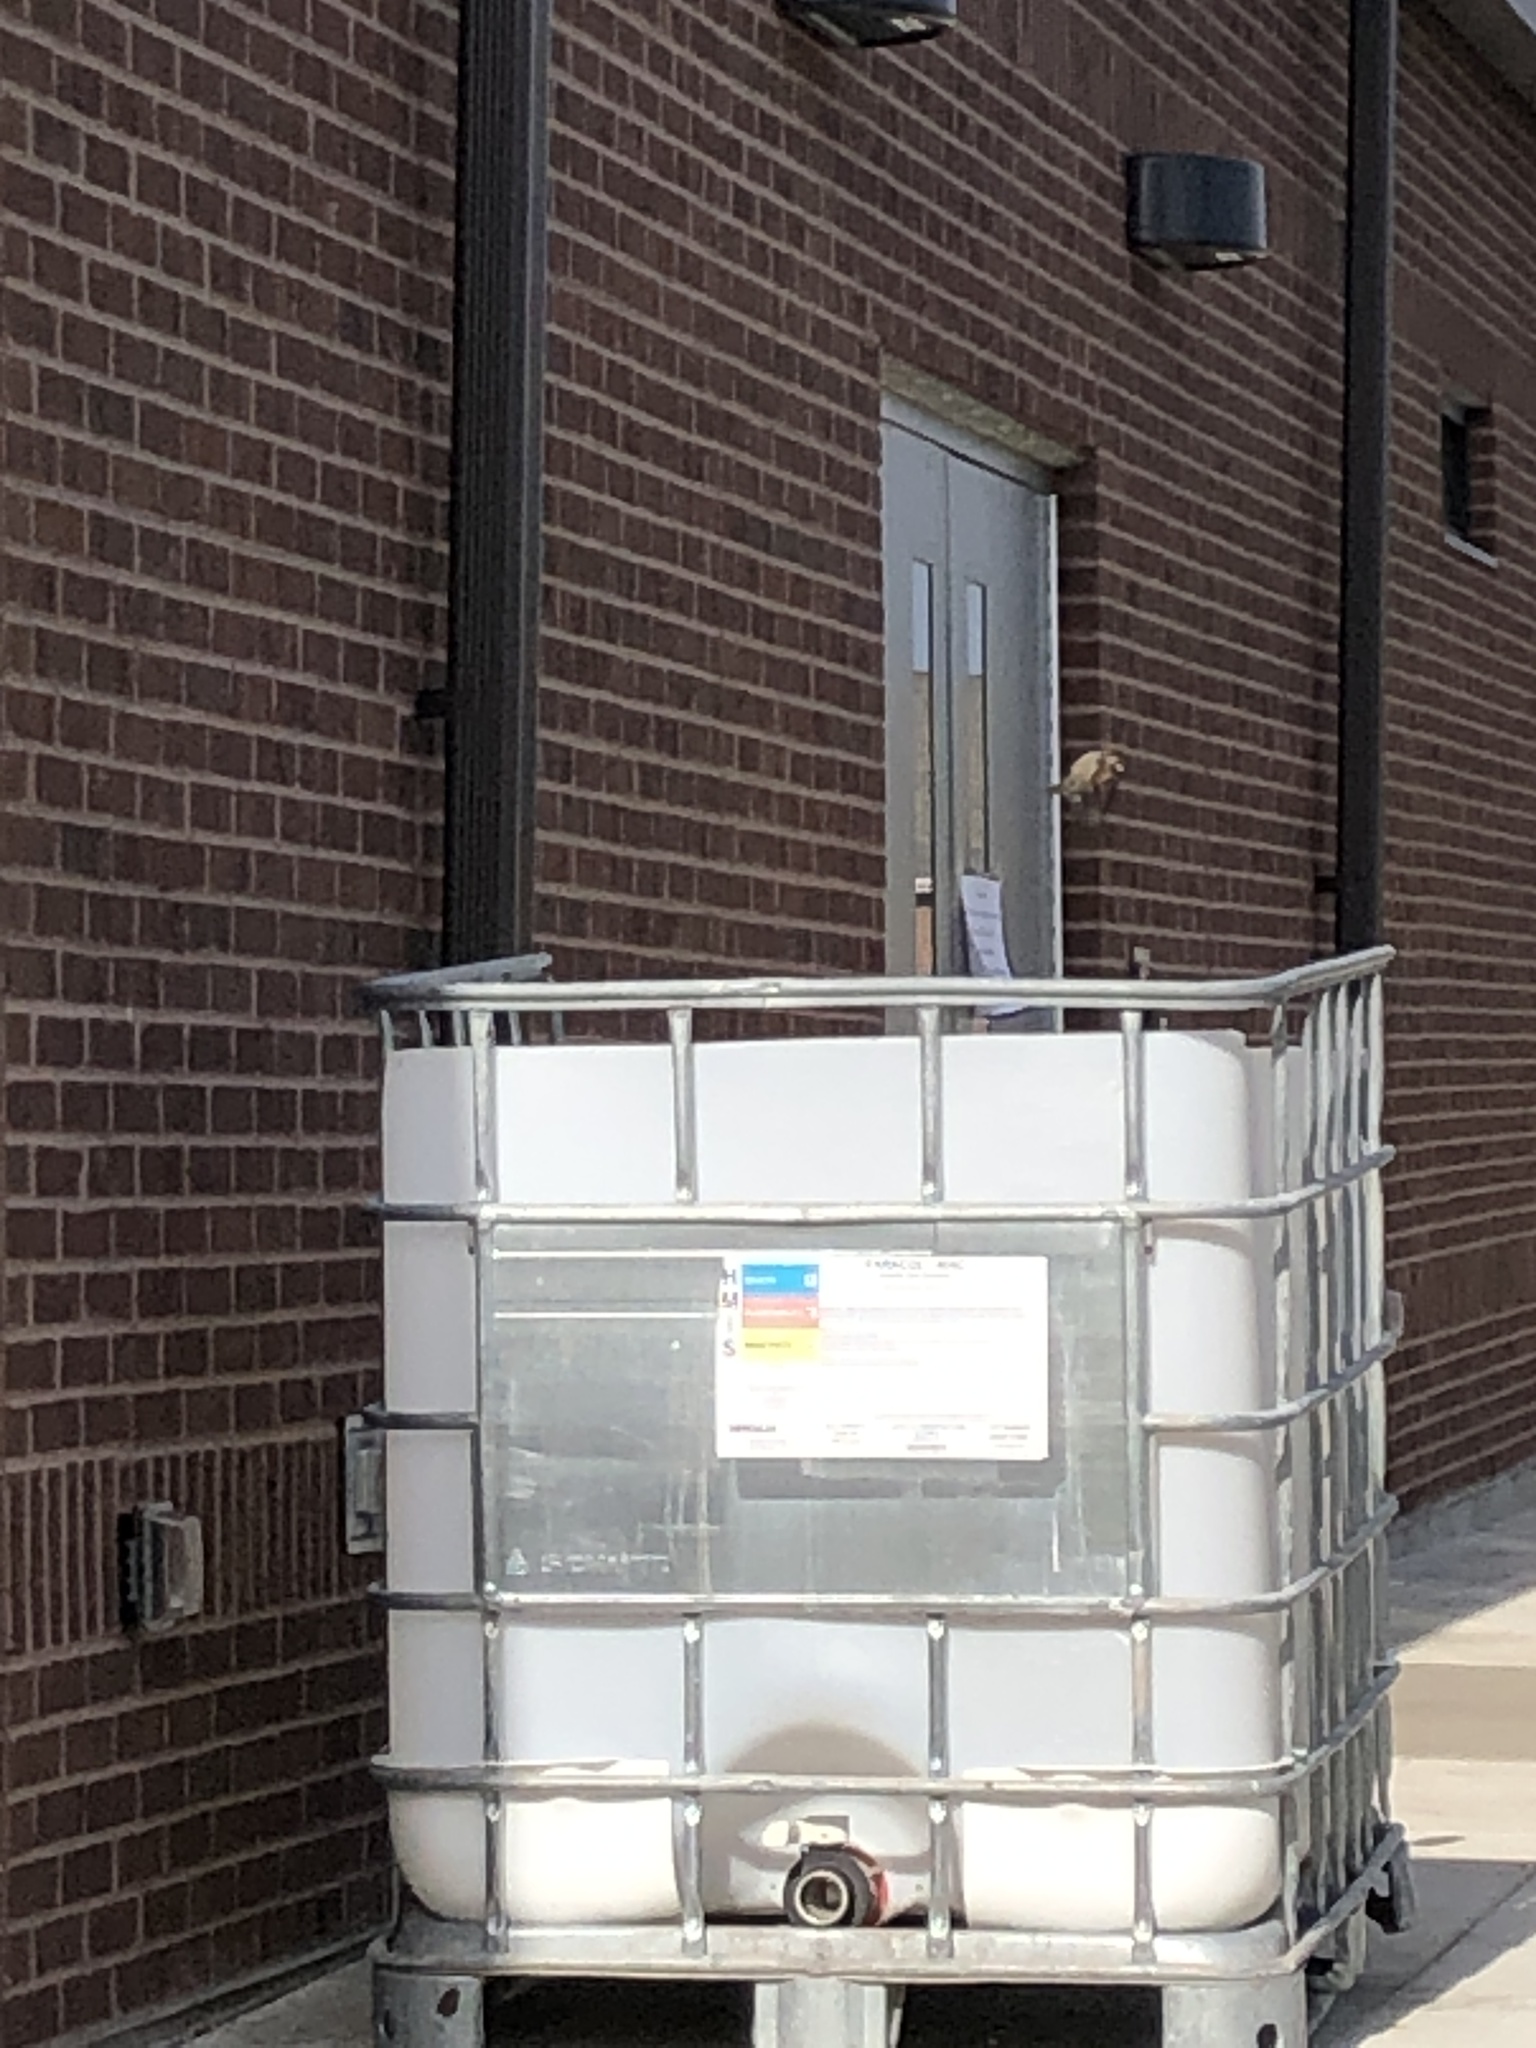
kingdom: Animalia
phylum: Chordata
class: Aves
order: Passeriformes
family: Passeridae
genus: Passer
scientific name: Passer domesticus
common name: House sparrow
